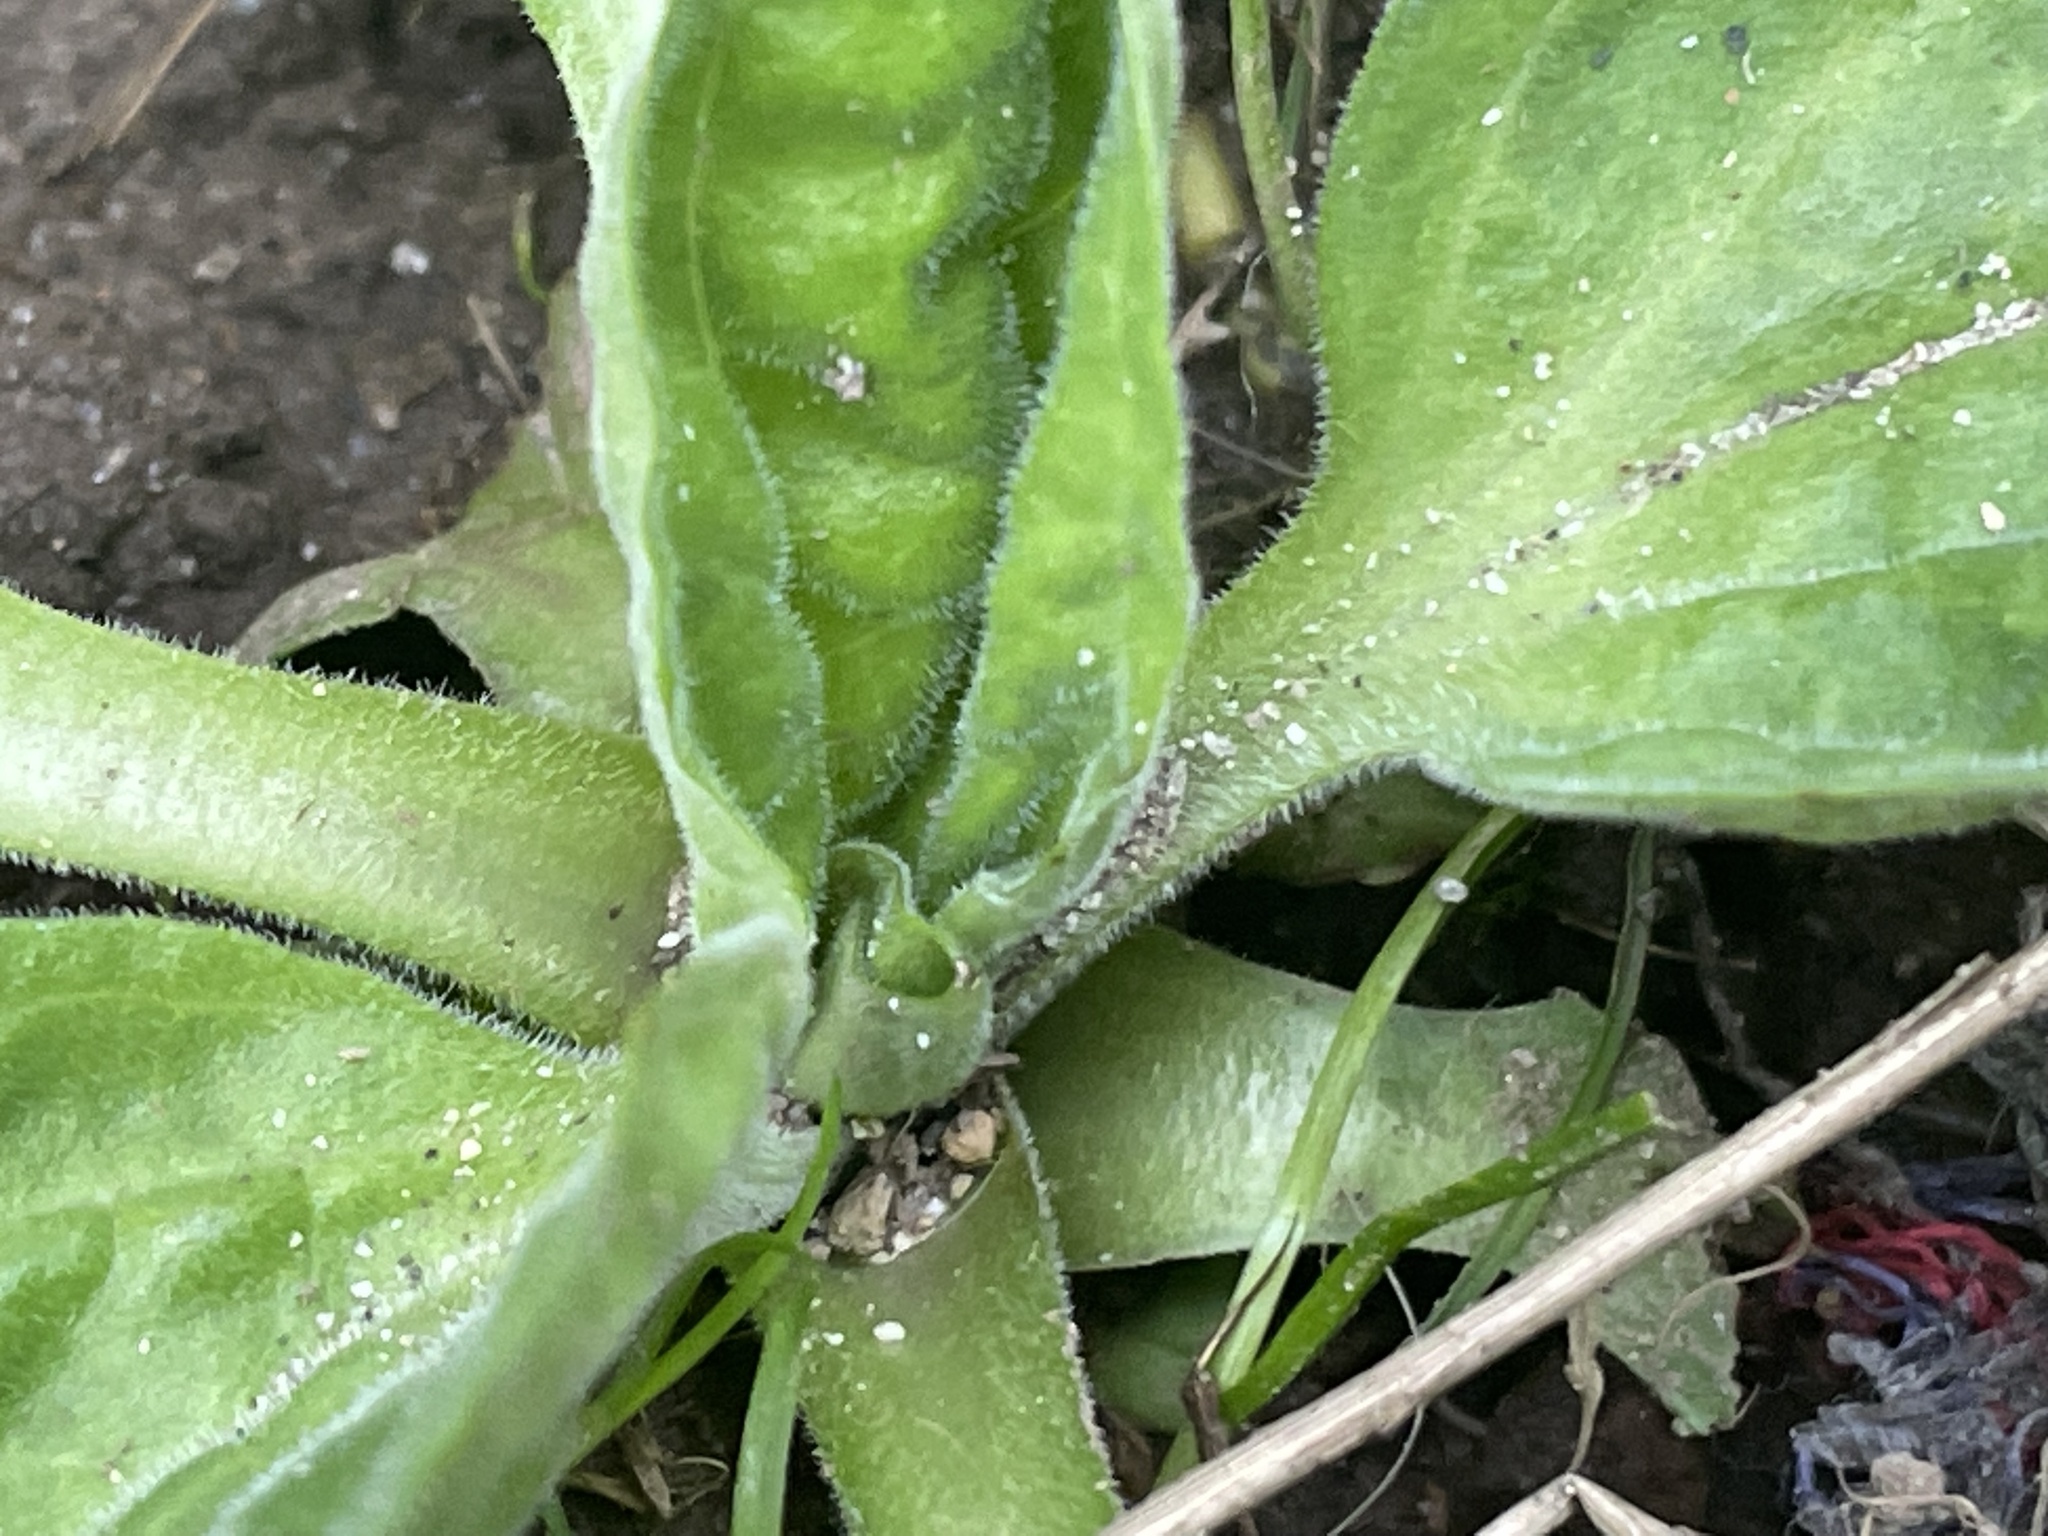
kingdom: Plantae
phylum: Tracheophyta
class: Magnoliopsida
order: Lamiales
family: Plantaginaceae
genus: Plantago
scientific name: Plantago major
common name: Common plantain
